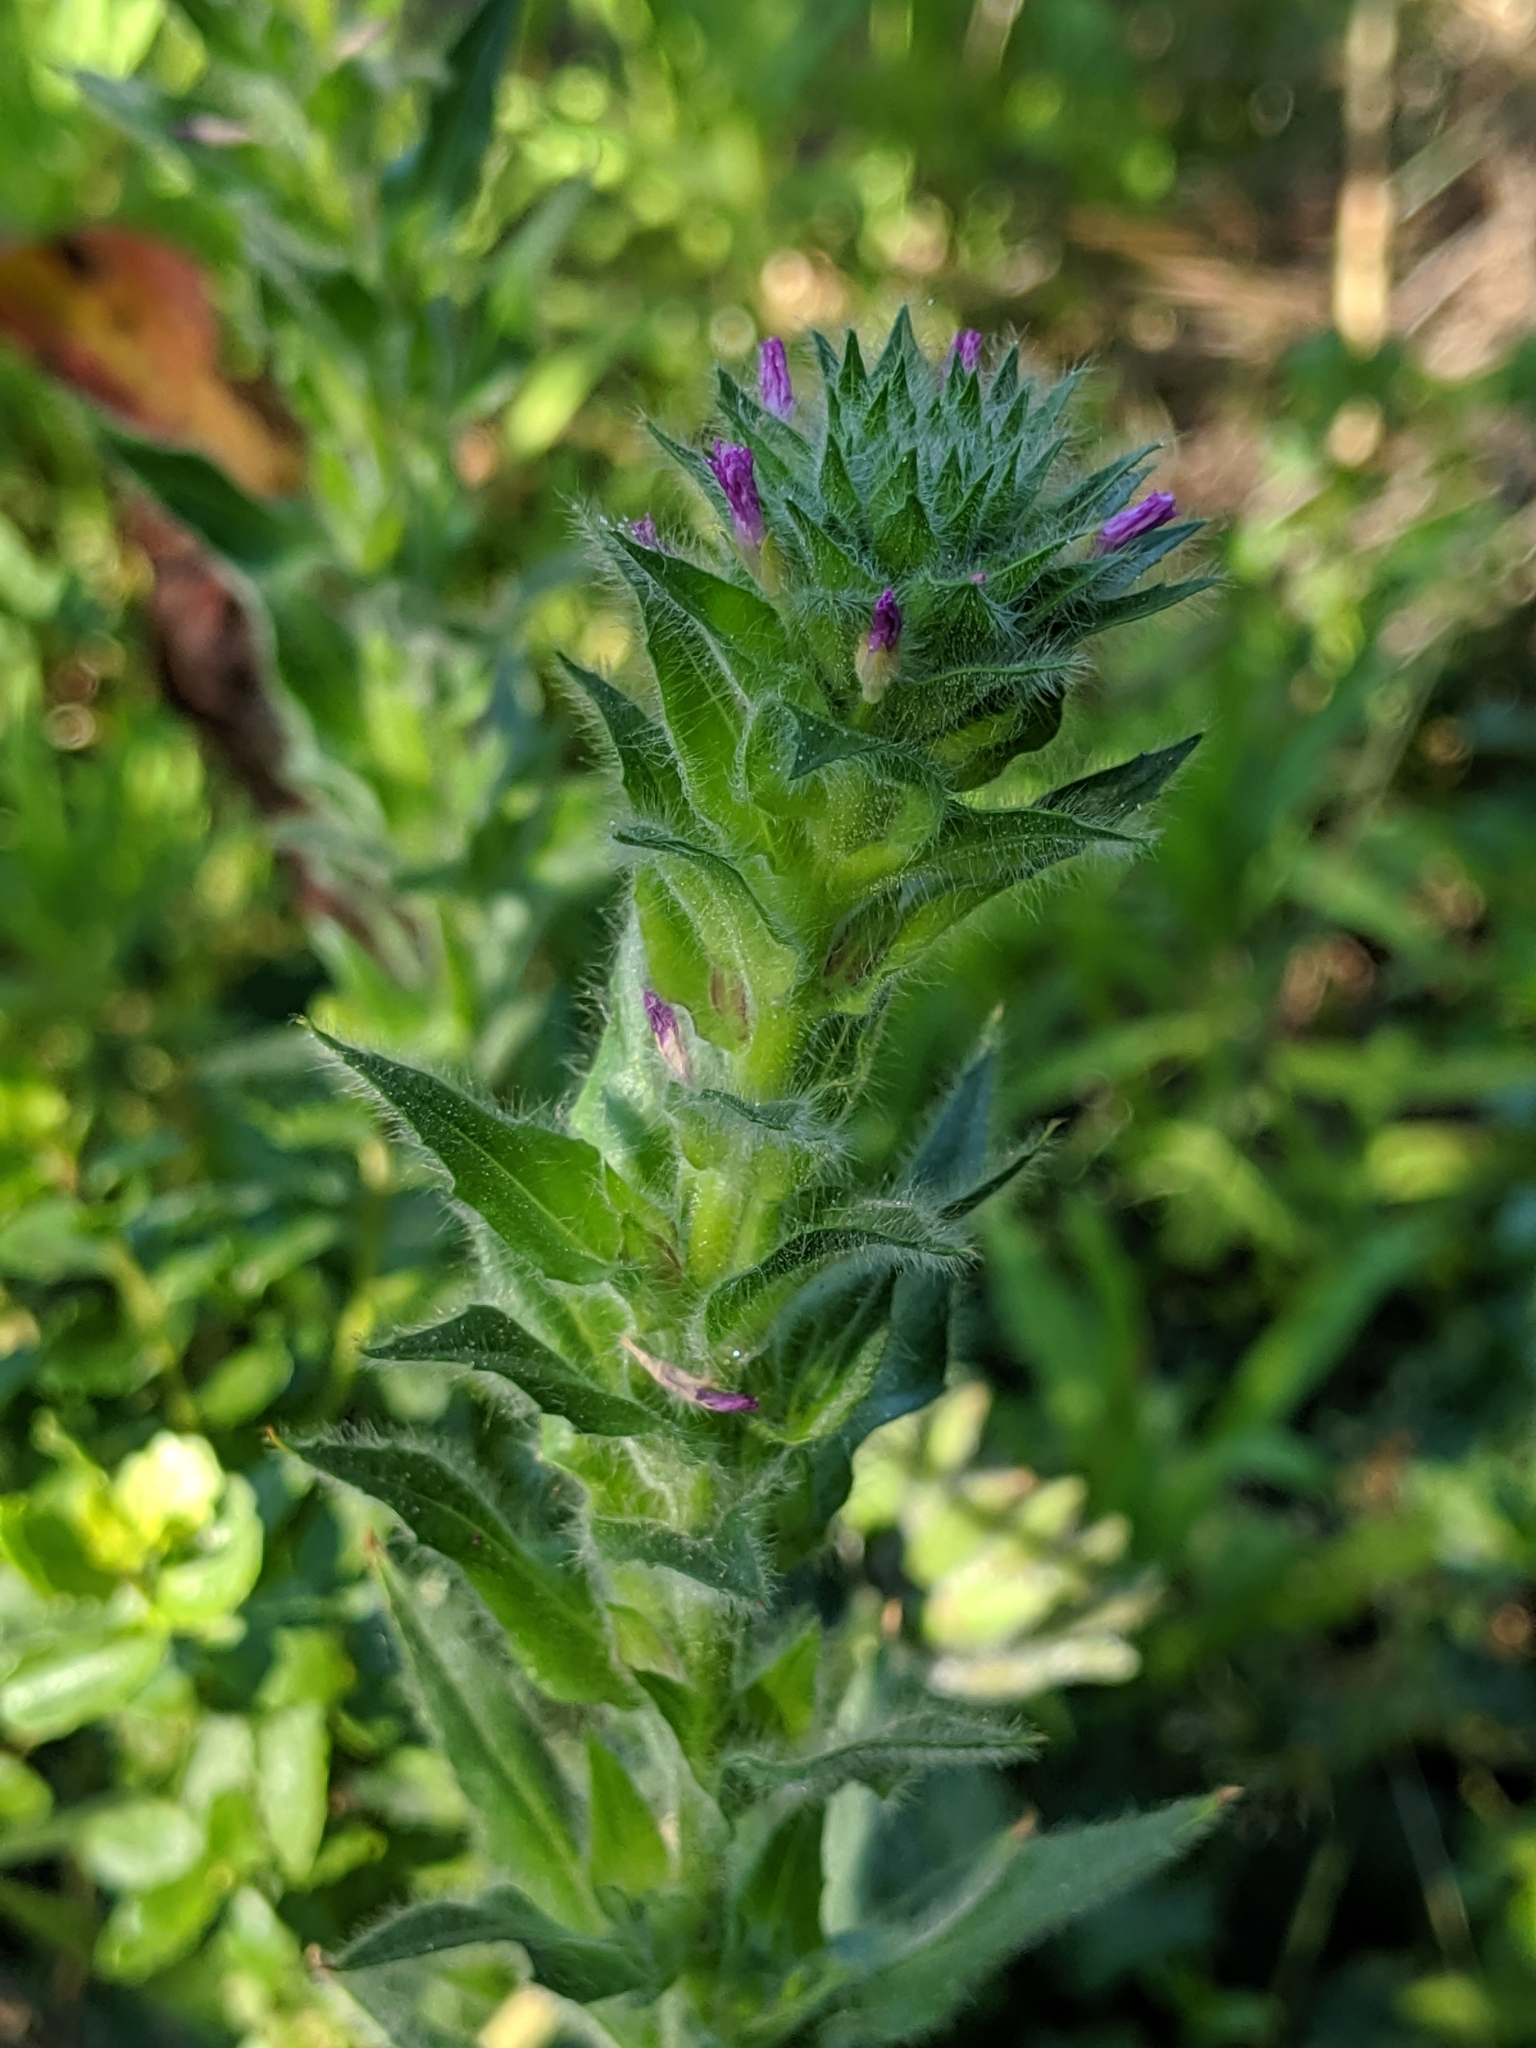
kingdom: Plantae
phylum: Tracheophyta
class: Magnoliopsida
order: Myrtales
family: Onagraceae
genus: Epilobium
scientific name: Epilobium densiflorum
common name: Dense spike-primrose
